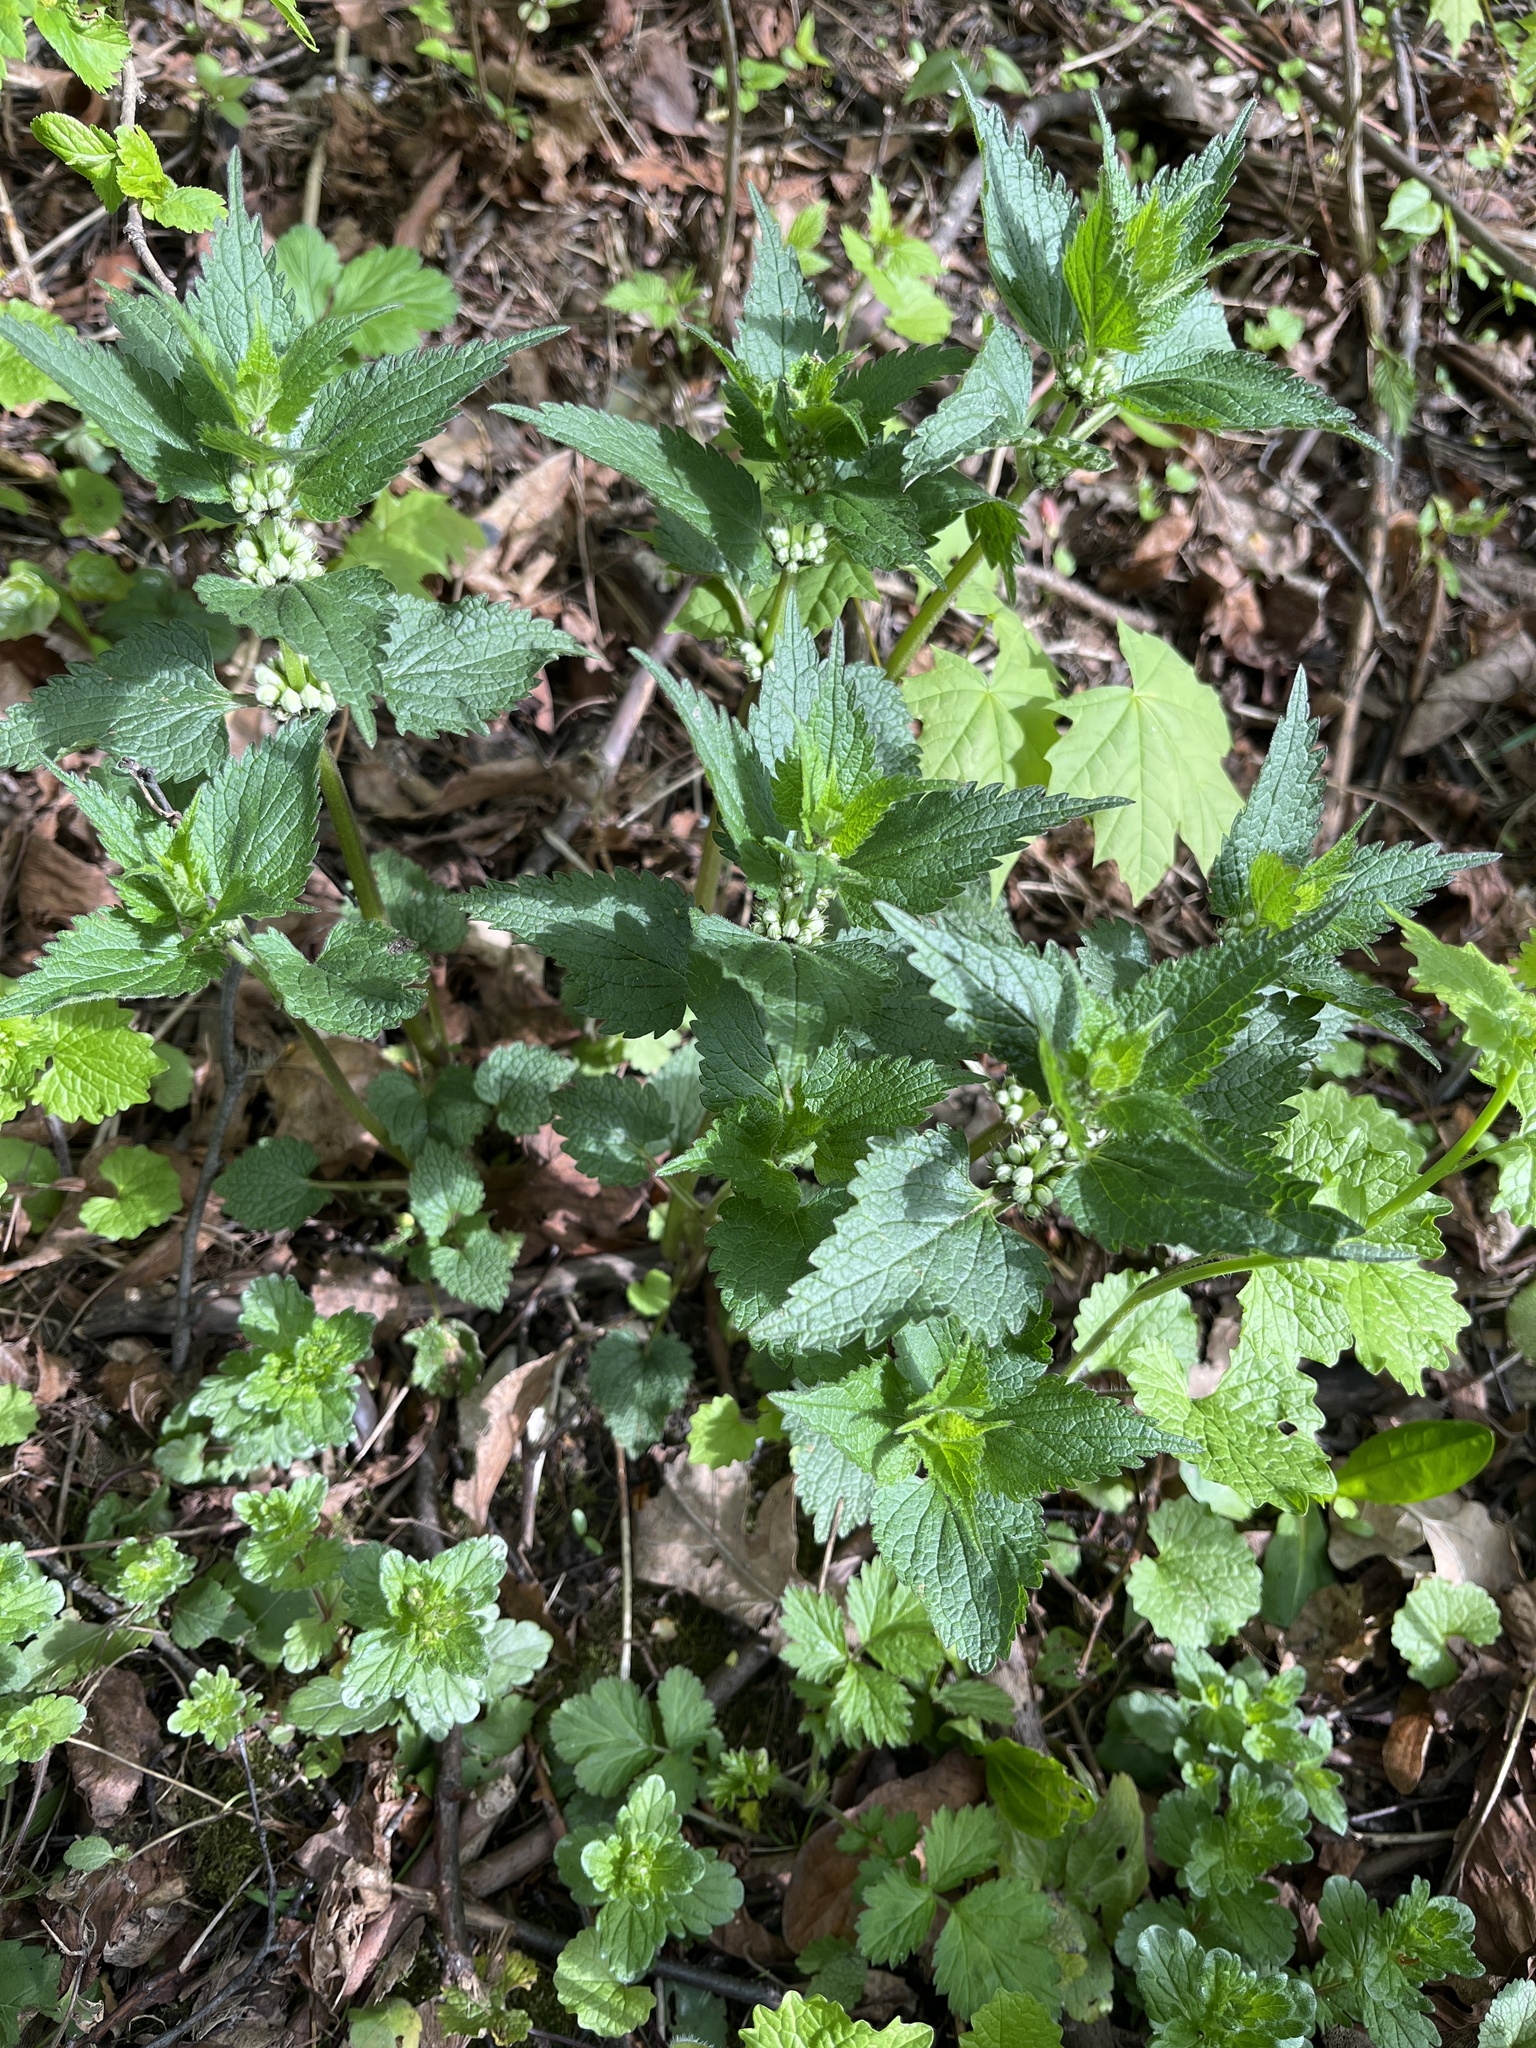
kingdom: Plantae
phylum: Tracheophyta
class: Magnoliopsida
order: Lamiales
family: Lamiaceae
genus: Lamium
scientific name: Lamium album
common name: White dead-nettle
